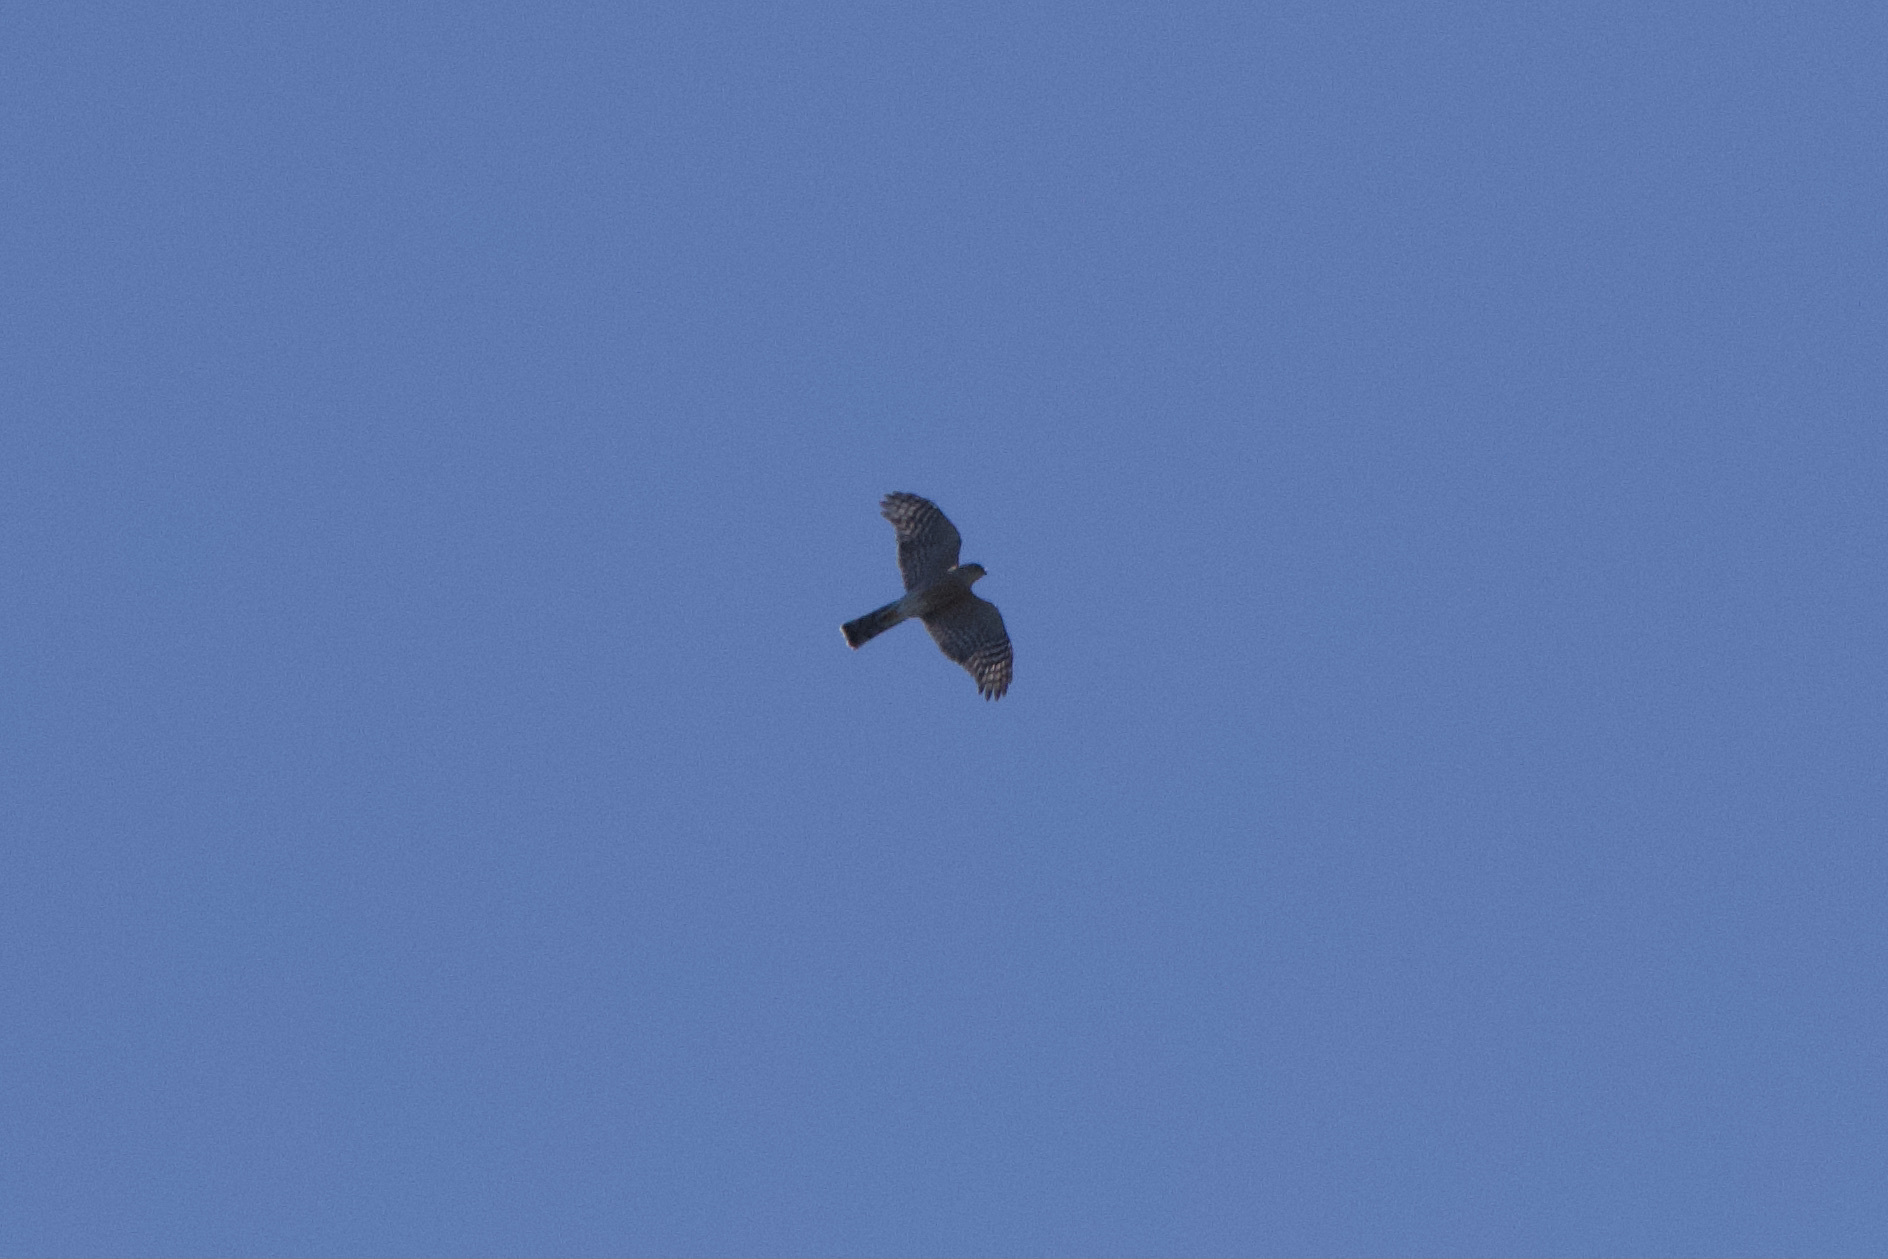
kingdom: Animalia
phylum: Chordata
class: Aves
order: Accipitriformes
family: Accipitridae
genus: Accipiter
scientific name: Accipiter striatus
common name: Sharp-shinned hawk
